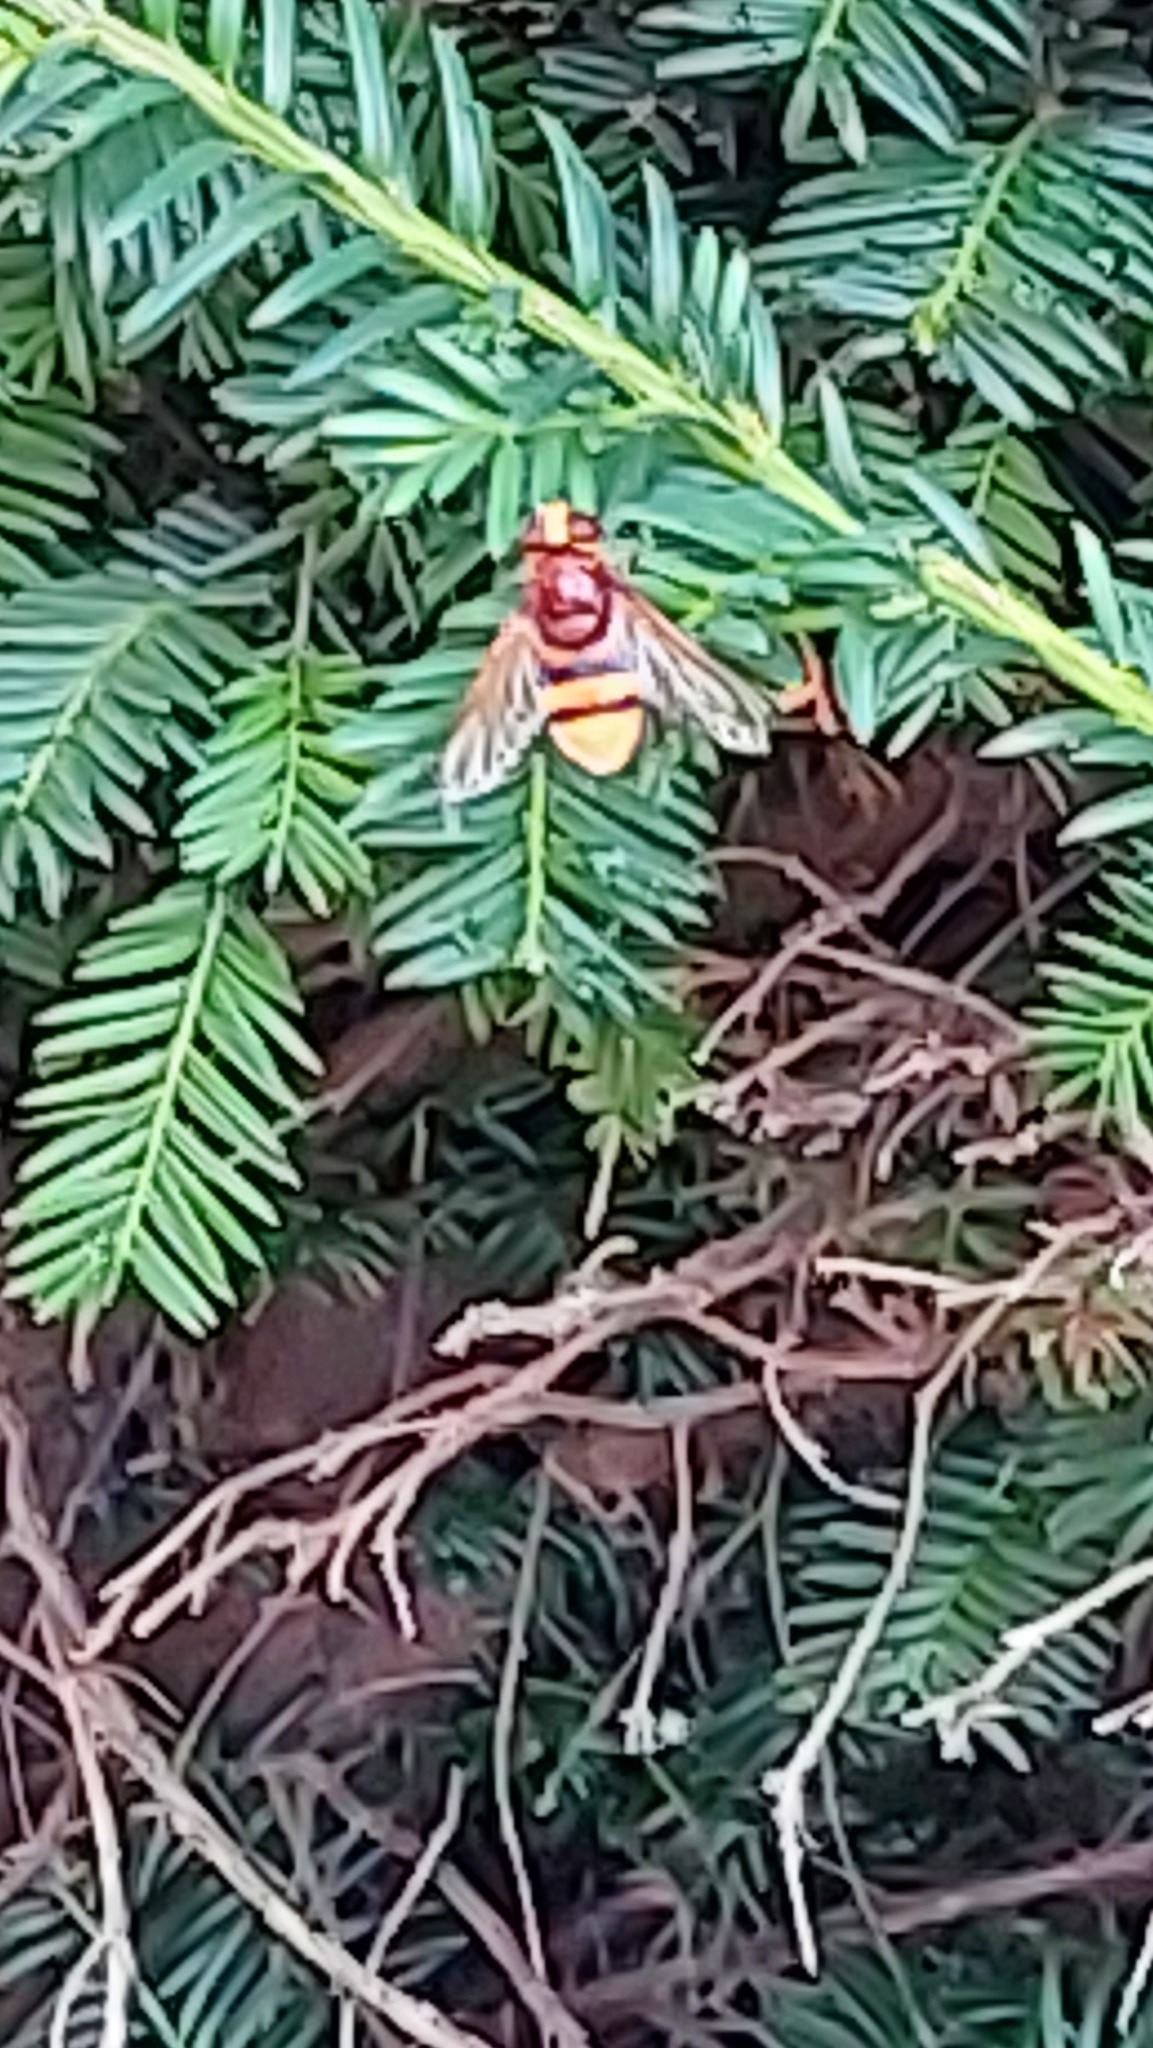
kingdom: Animalia
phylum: Arthropoda
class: Insecta
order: Diptera
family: Syrphidae
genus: Volucella
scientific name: Volucella zonaria
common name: Hornet hoverfly
